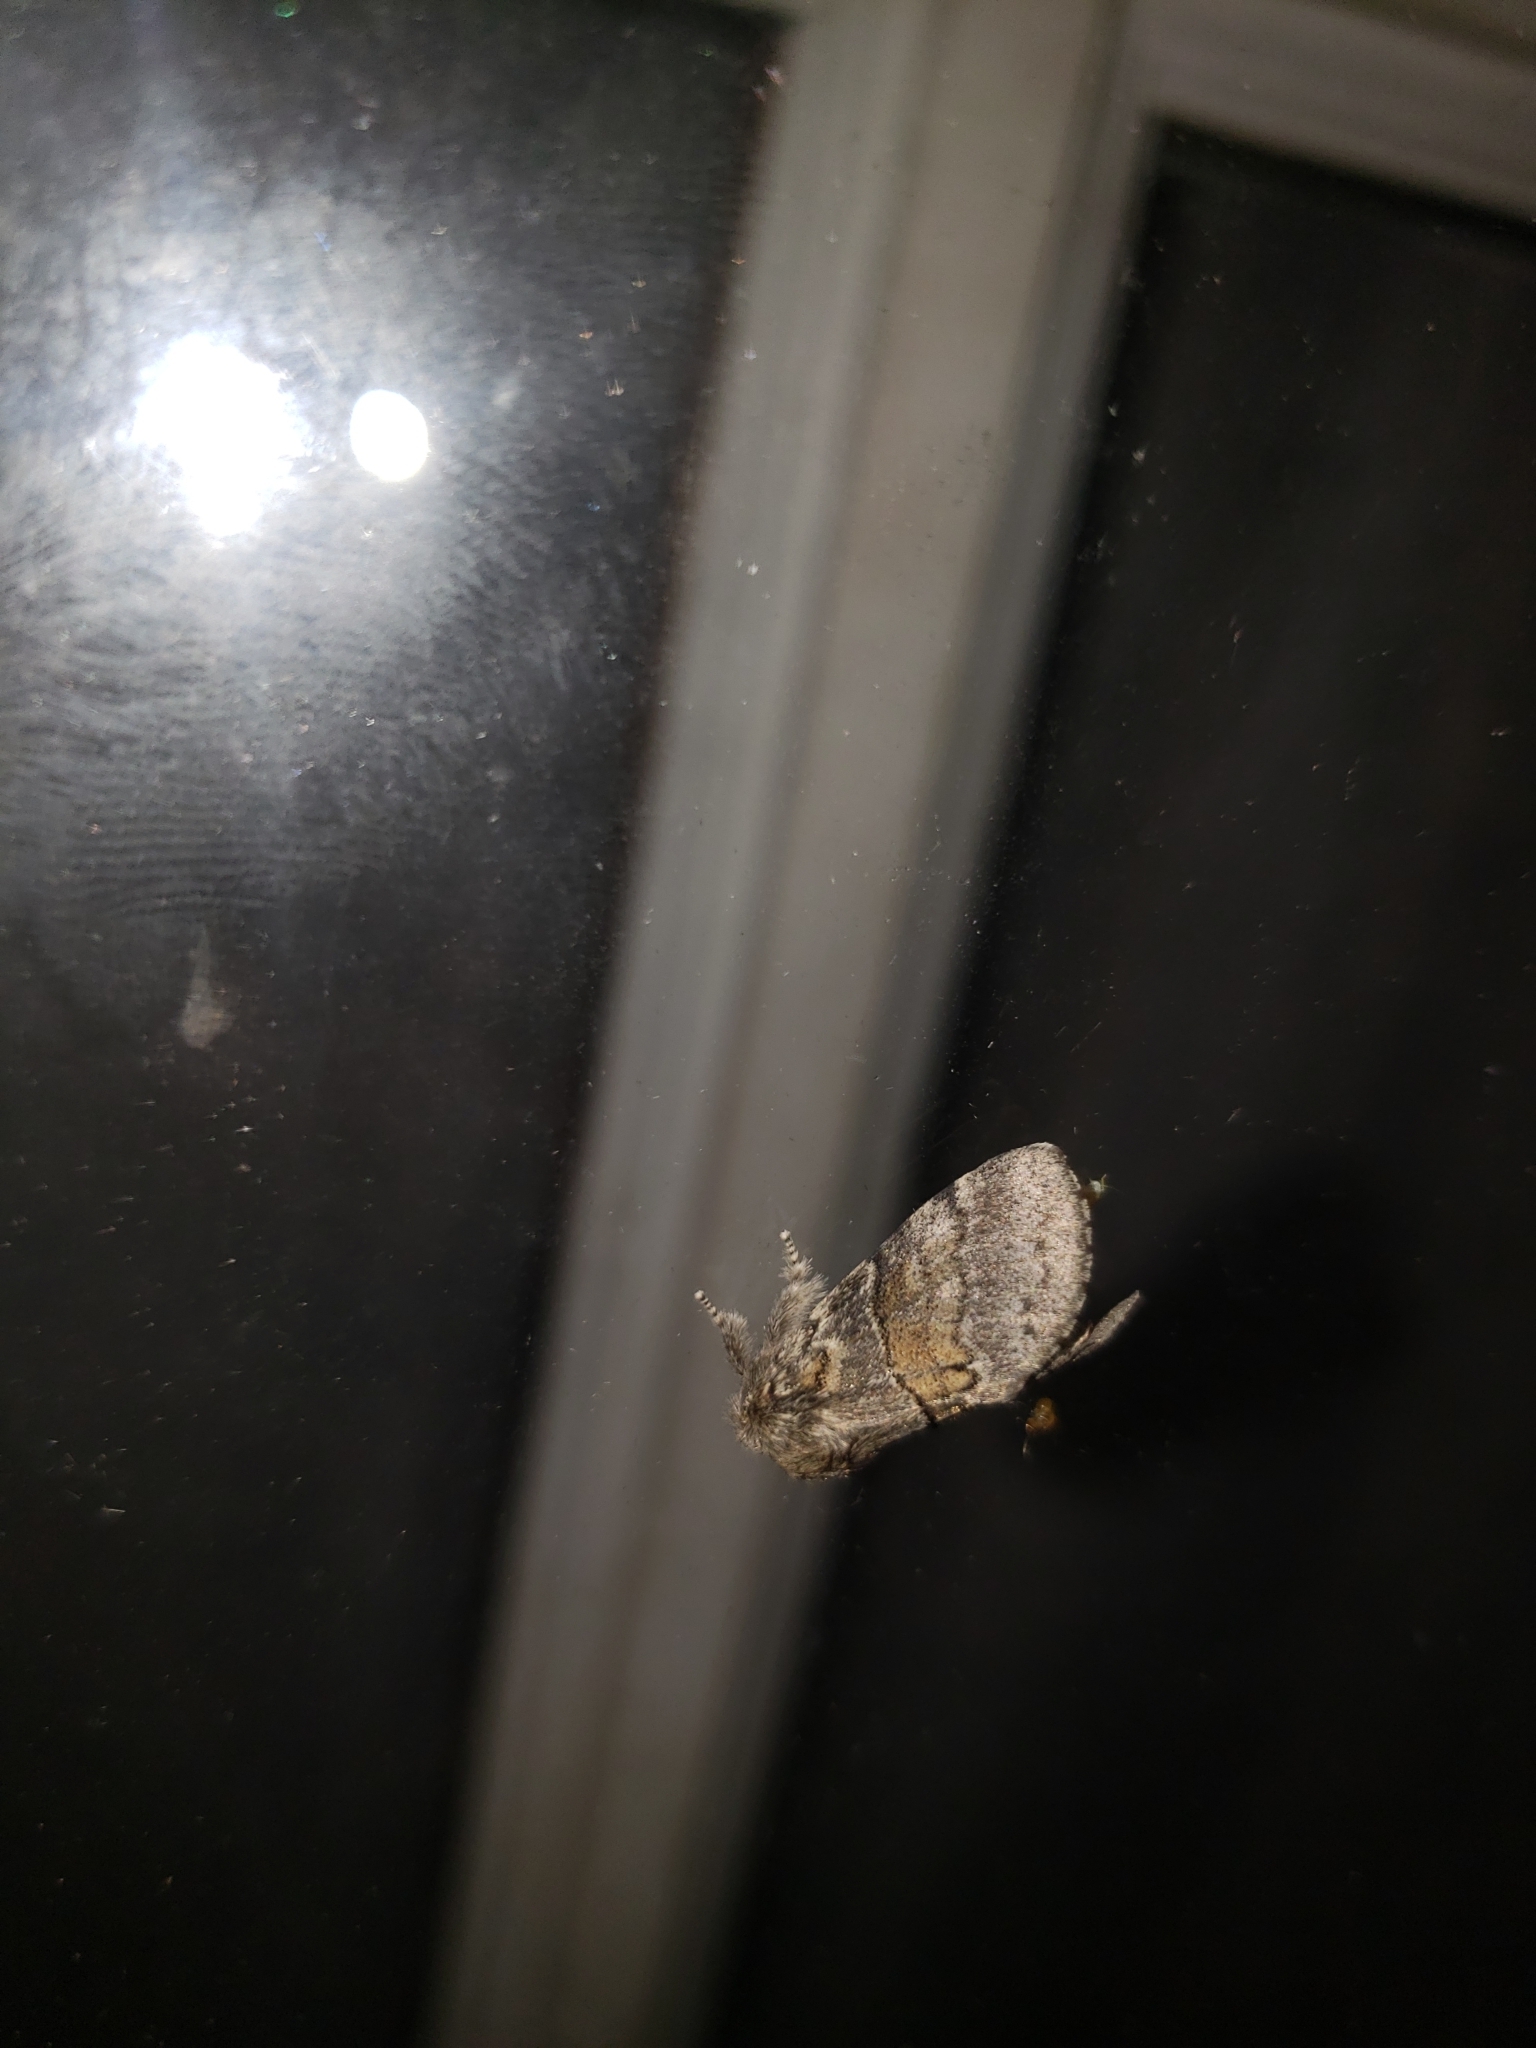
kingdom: Animalia
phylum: Arthropoda
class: Insecta
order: Lepidoptera
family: Notodontidae
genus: Gluphisia
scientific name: Gluphisia septentrionis
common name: Common gluphisia
